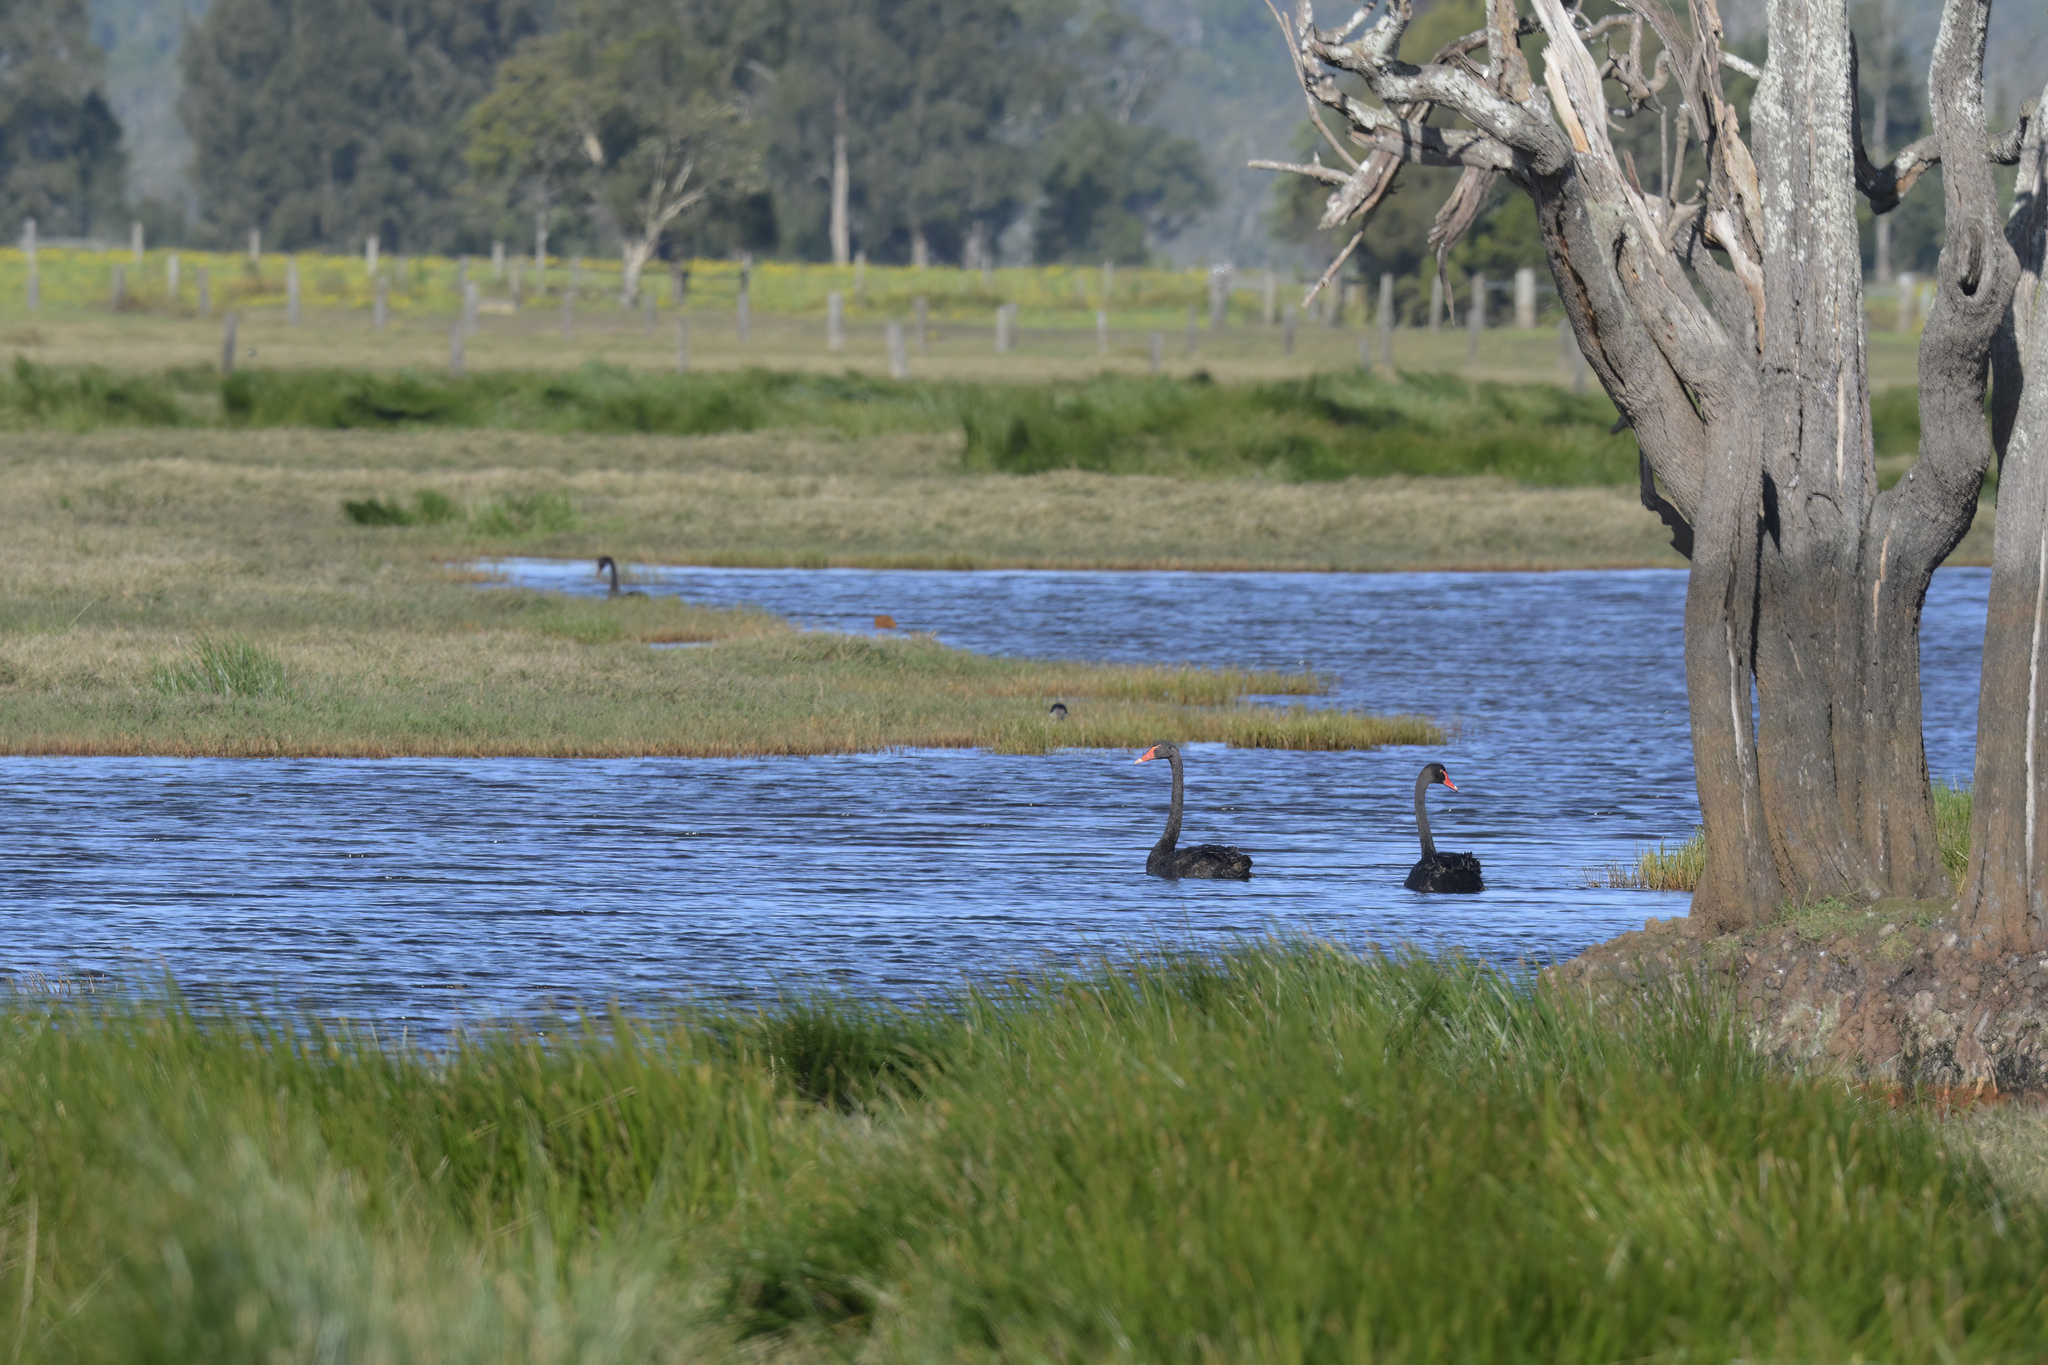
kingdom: Animalia
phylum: Chordata
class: Aves
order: Anseriformes
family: Anatidae
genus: Cygnus
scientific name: Cygnus atratus
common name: Black swan
